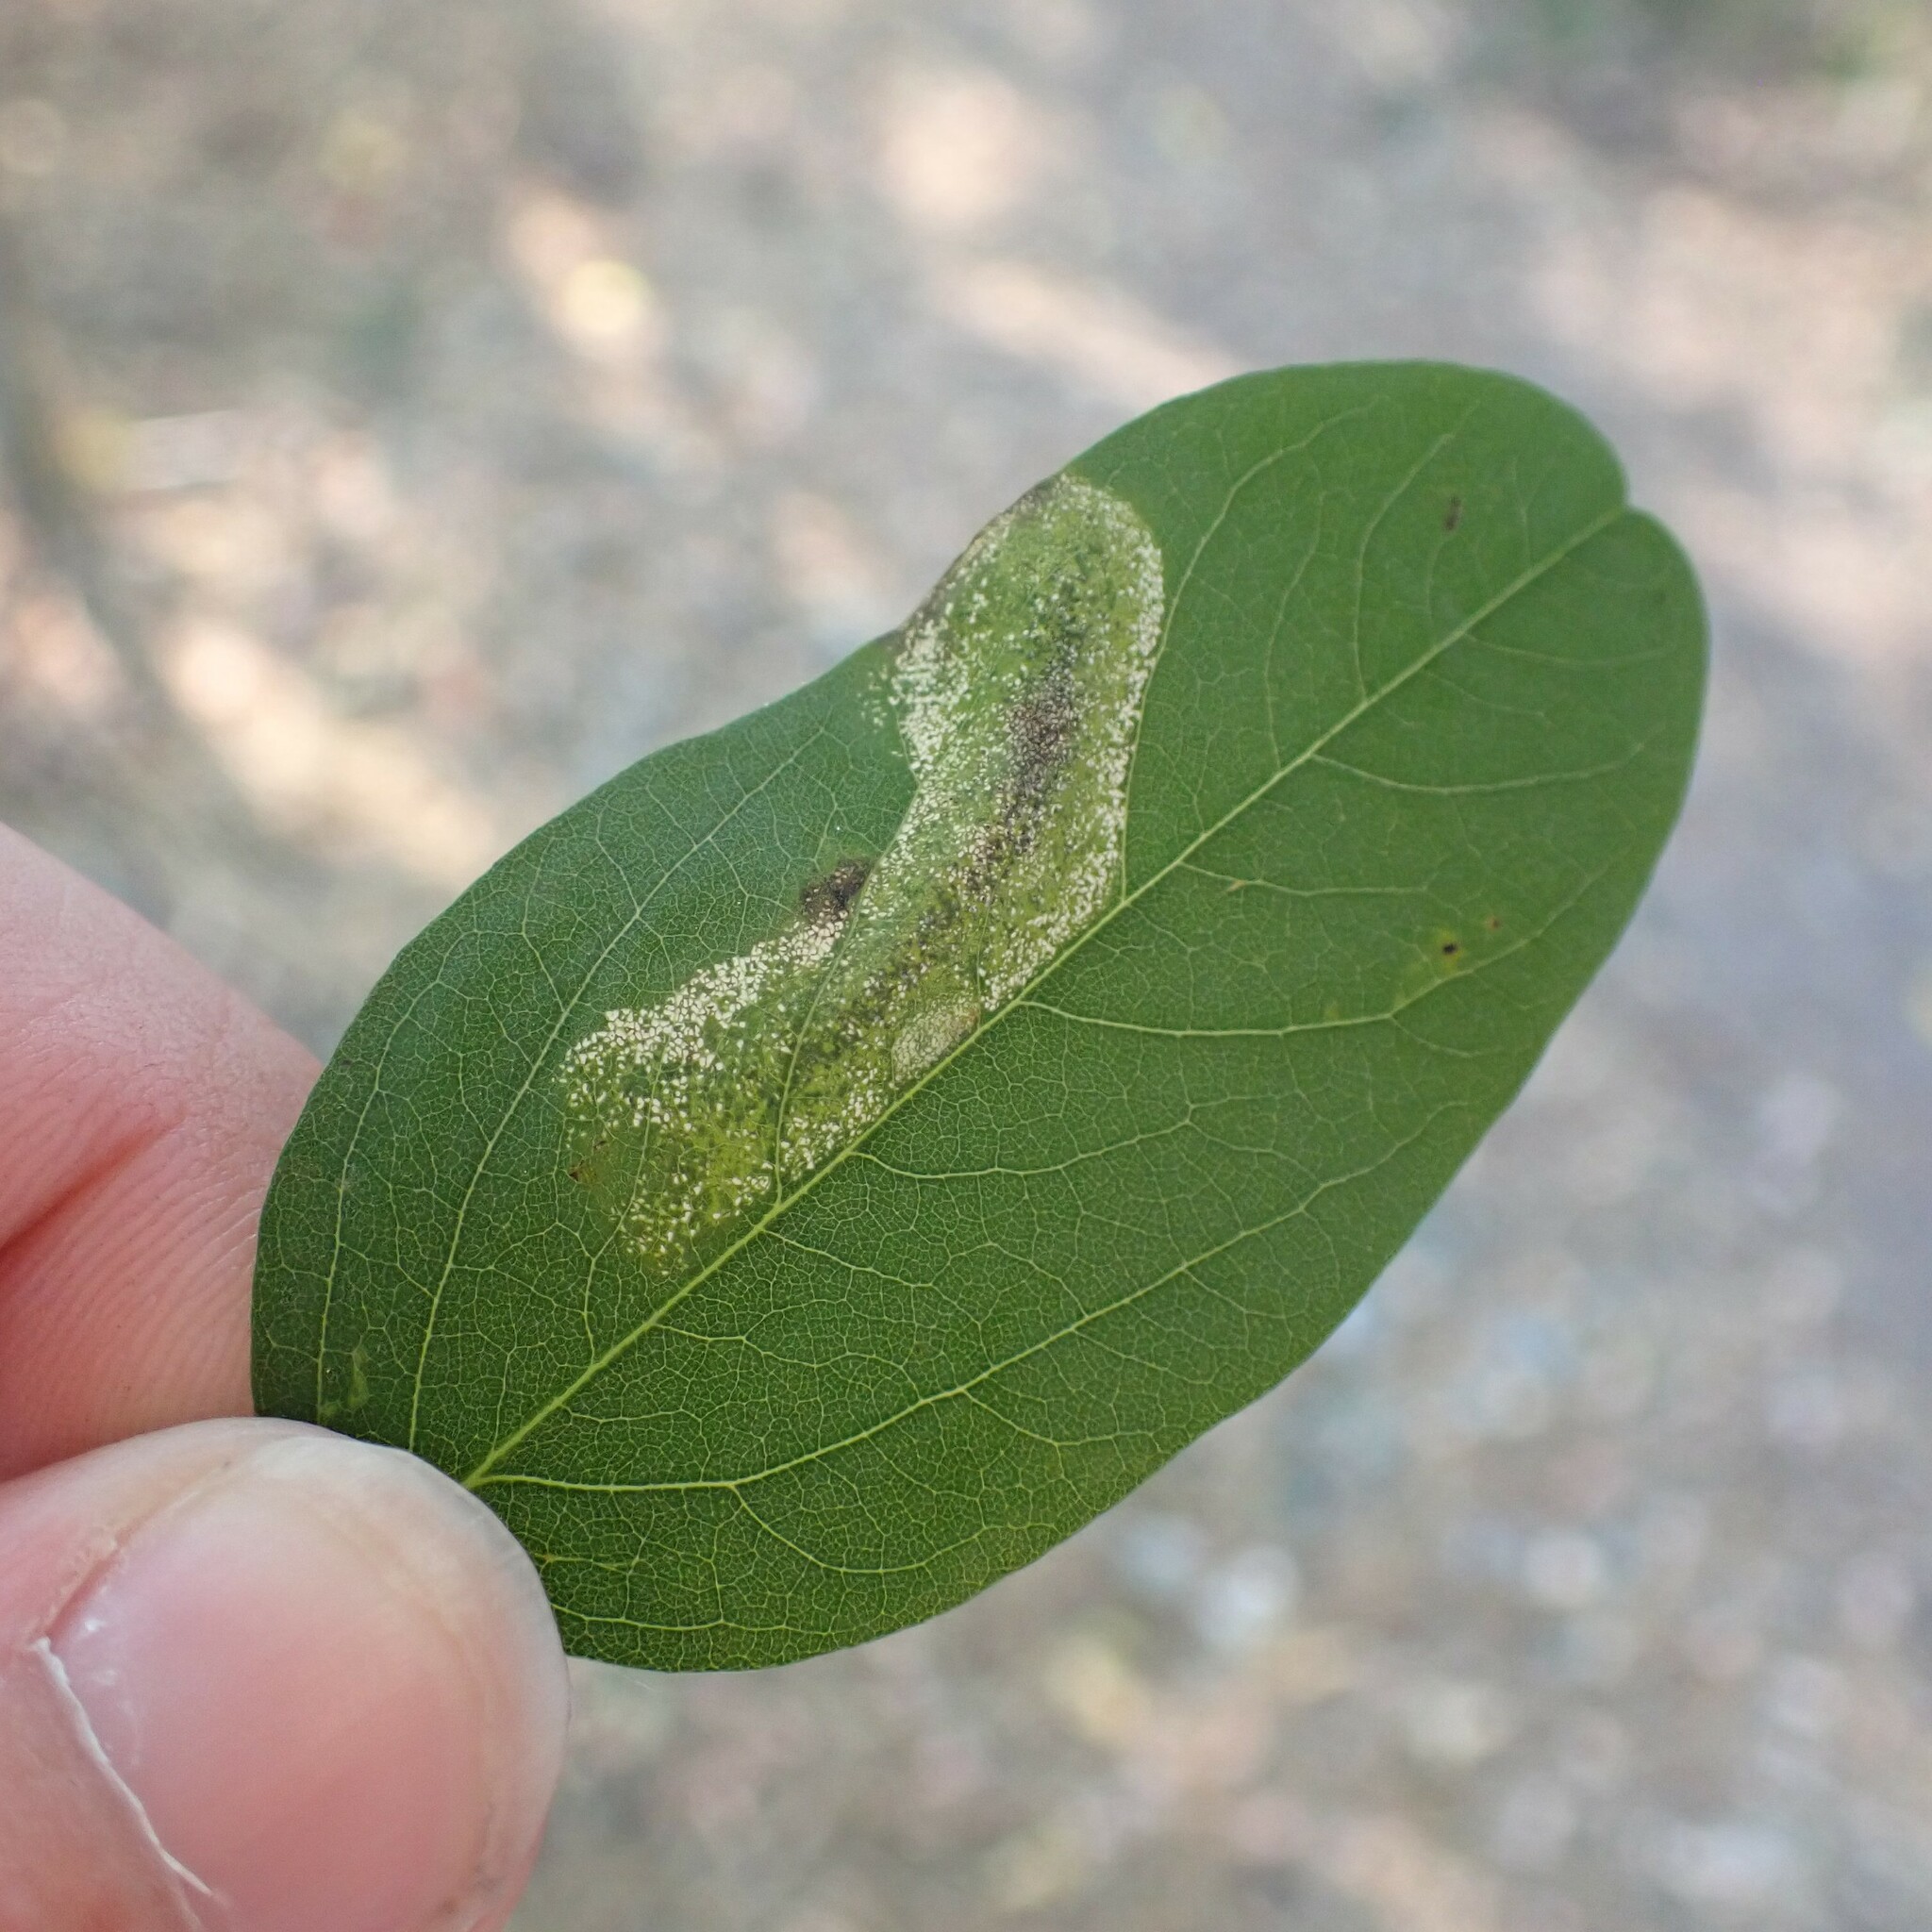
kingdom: Animalia
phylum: Arthropoda
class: Insecta
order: Lepidoptera
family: Gracillariidae
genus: Macrosaccus
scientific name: Macrosaccus robiniella
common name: Leaf blotch miner moth
